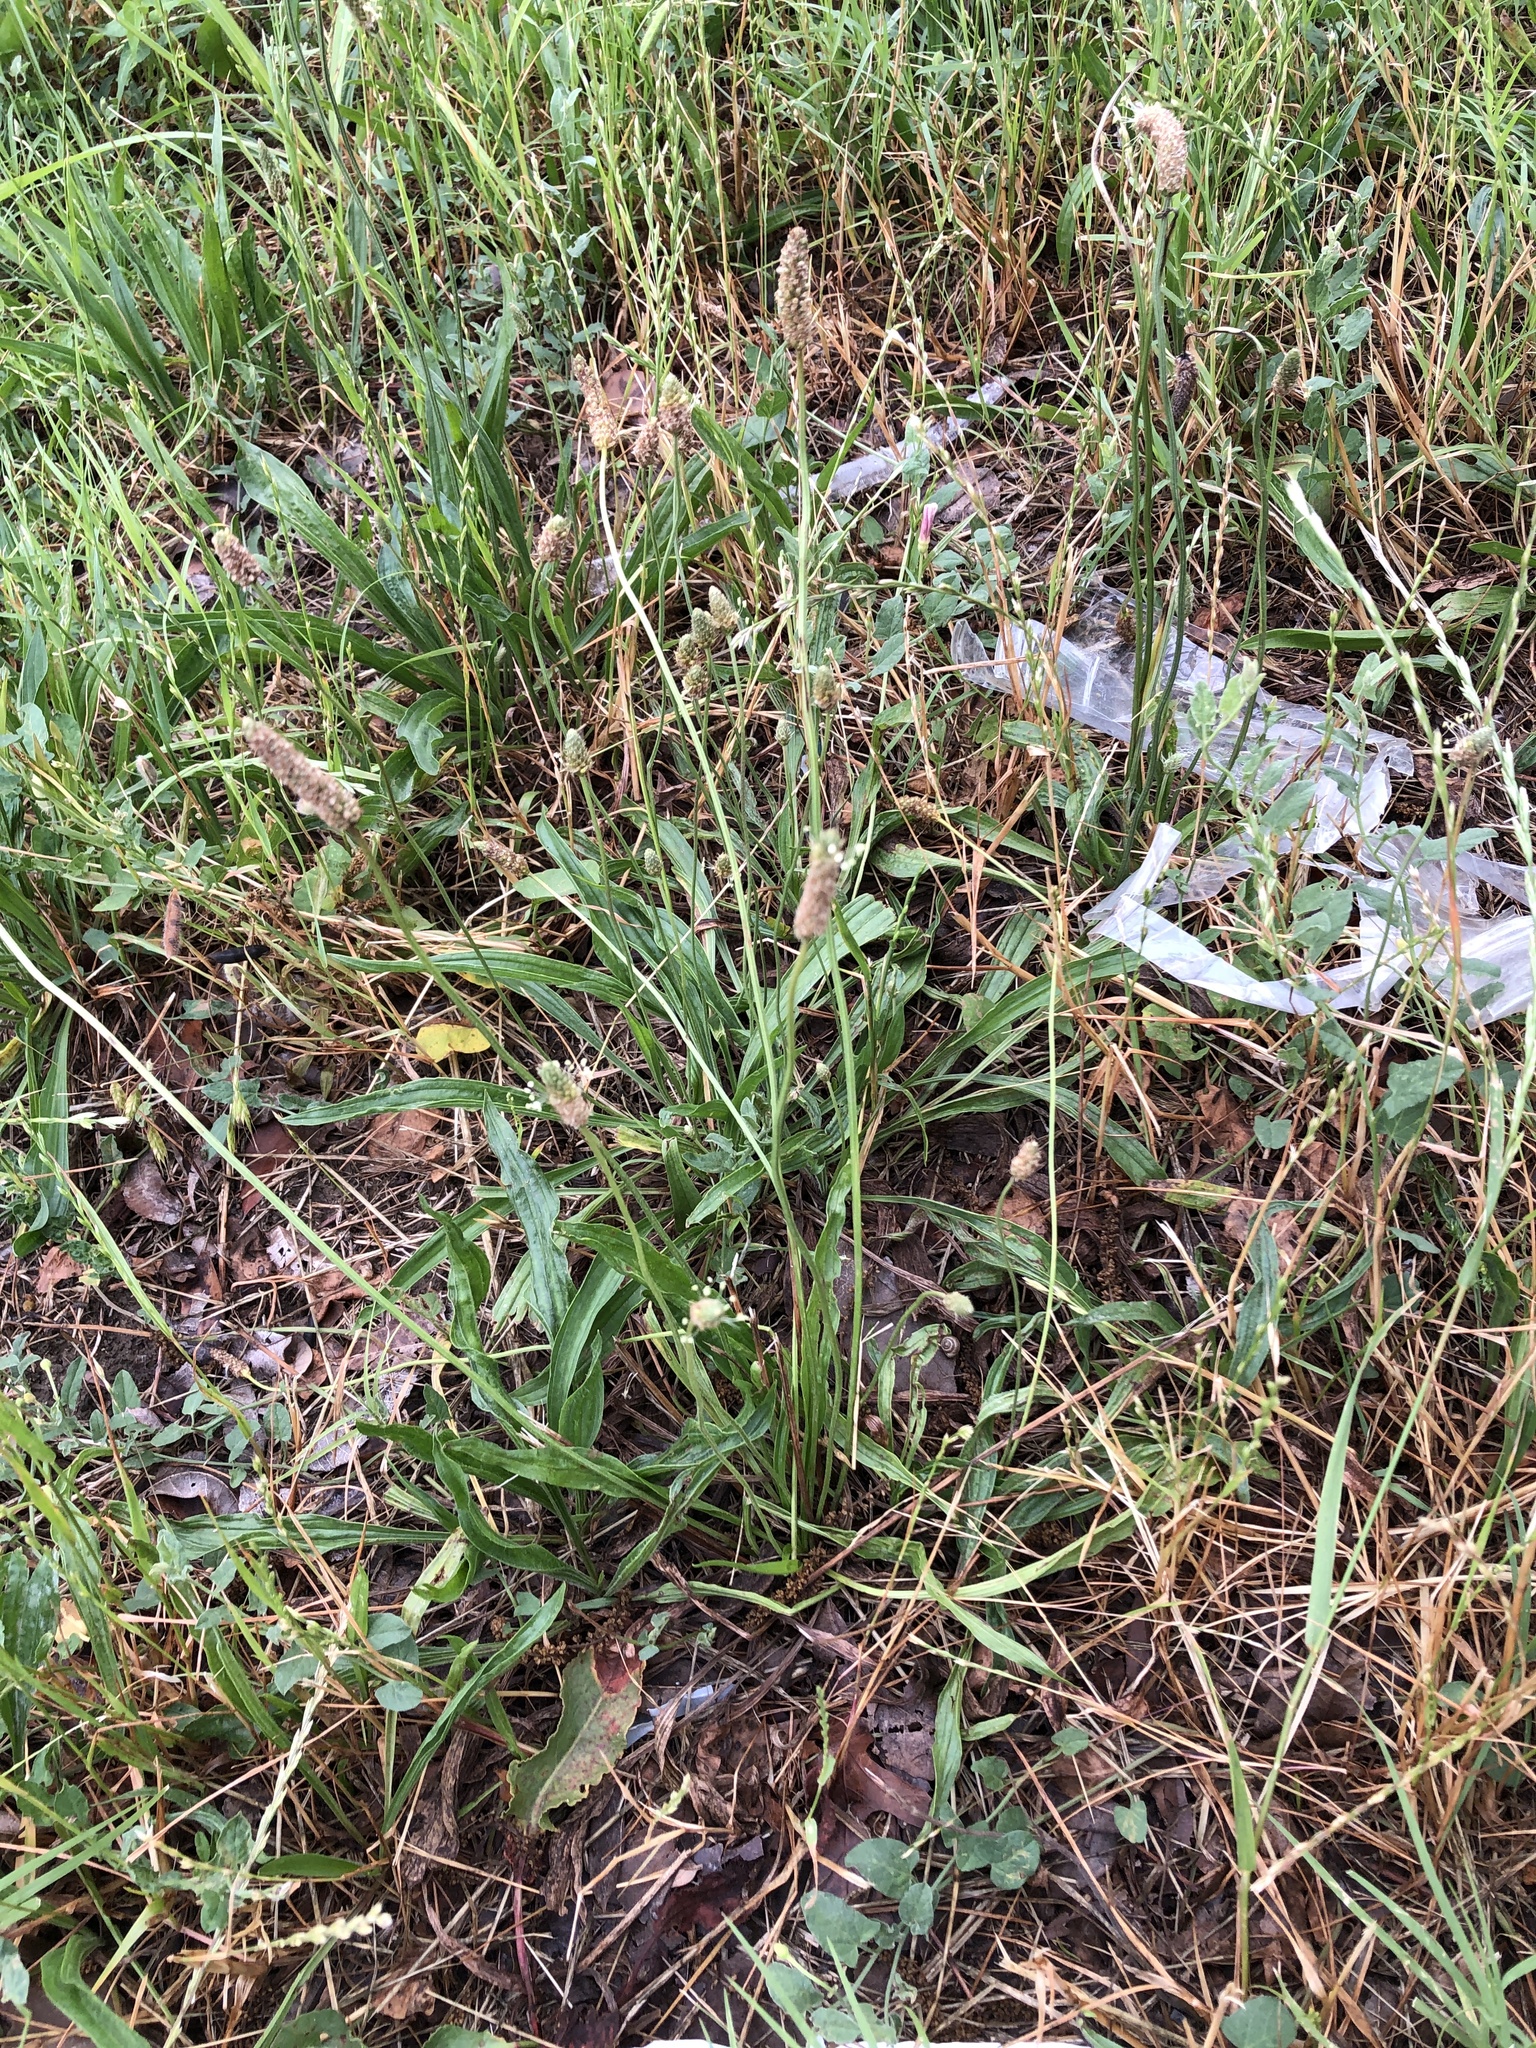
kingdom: Plantae
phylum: Tracheophyta
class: Magnoliopsida
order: Lamiales
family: Plantaginaceae
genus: Plantago
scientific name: Plantago lanceolata
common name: Ribwort plantain
